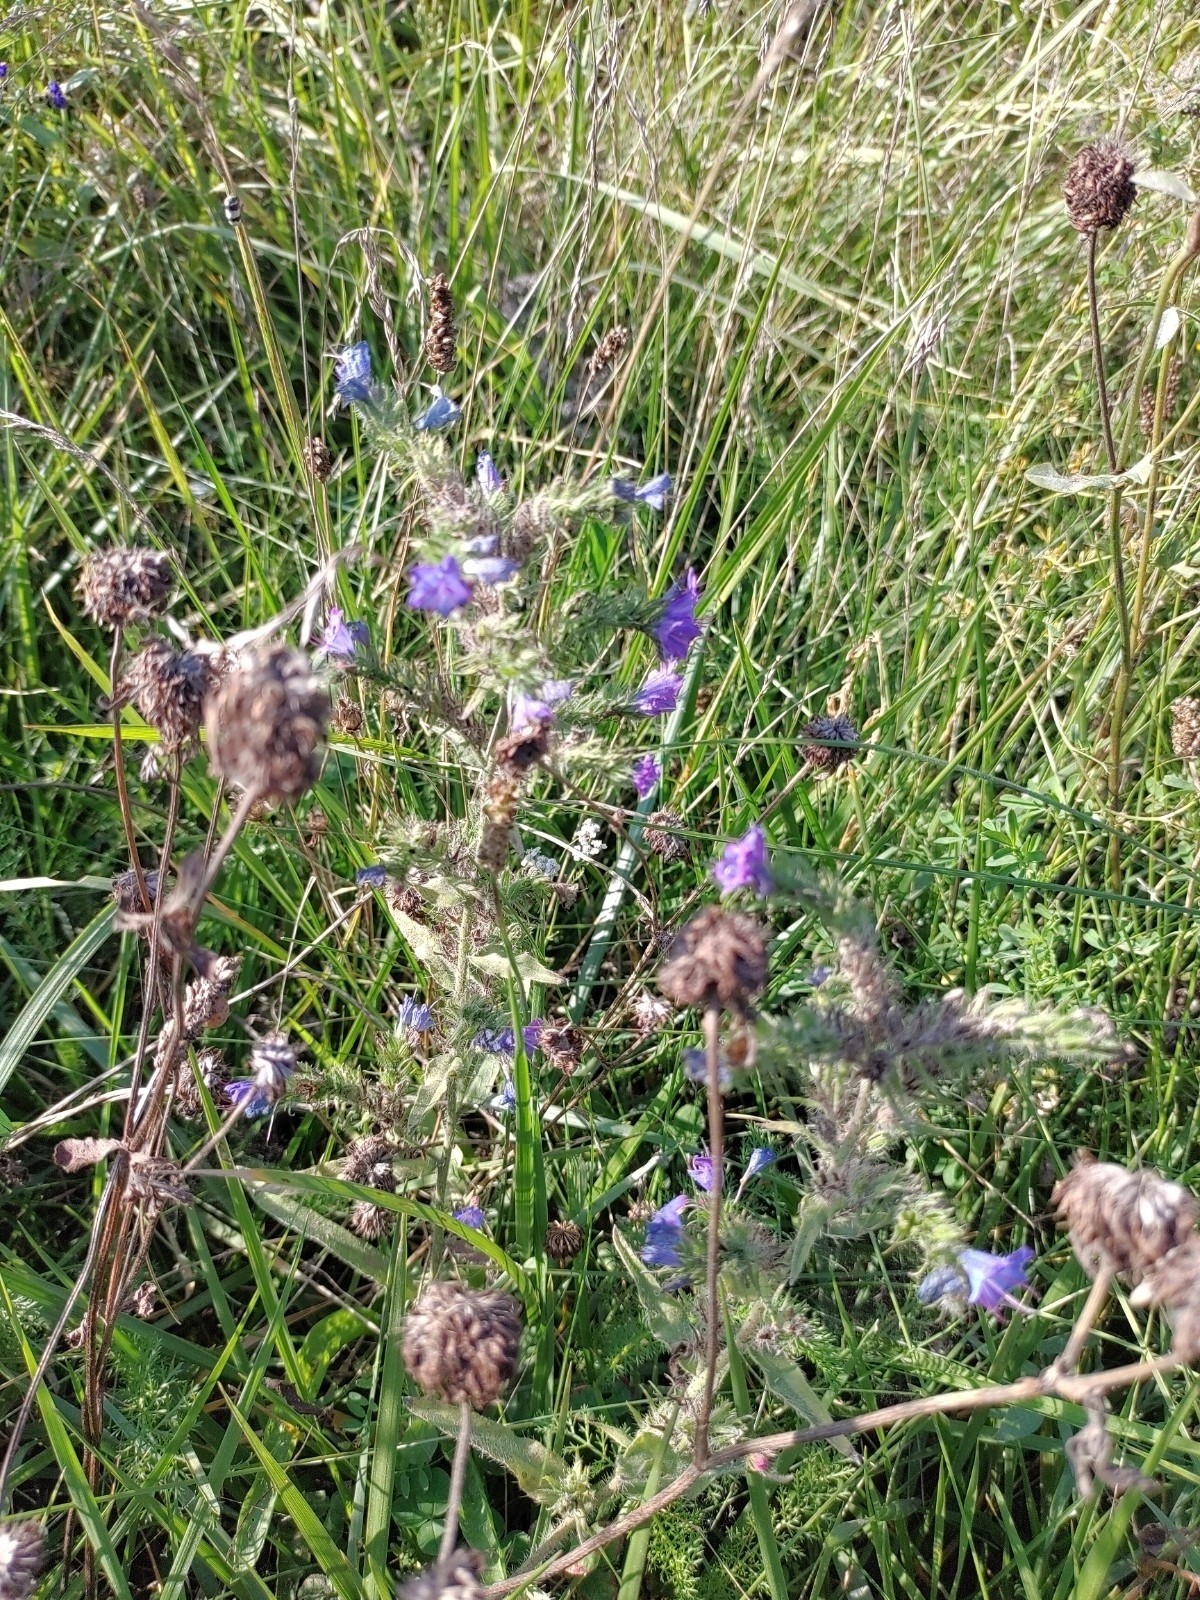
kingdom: Plantae
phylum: Tracheophyta
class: Magnoliopsida
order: Boraginales
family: Boraginaceae
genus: Echium
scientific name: Echium vulgare
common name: Common viper's bugloss
